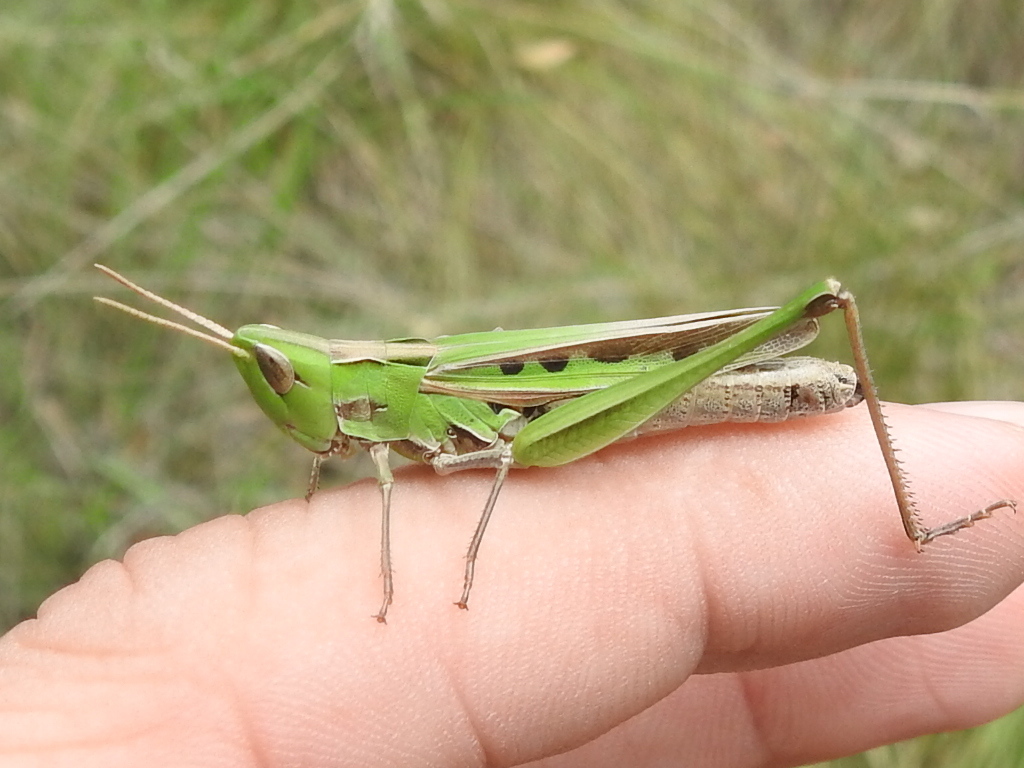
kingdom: Animalia
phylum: Arthropoda
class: Insecta
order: Orthoptera
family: Acrididae
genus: Syrbula
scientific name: Syrbula montezuma
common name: Montezuma's grasshopper
